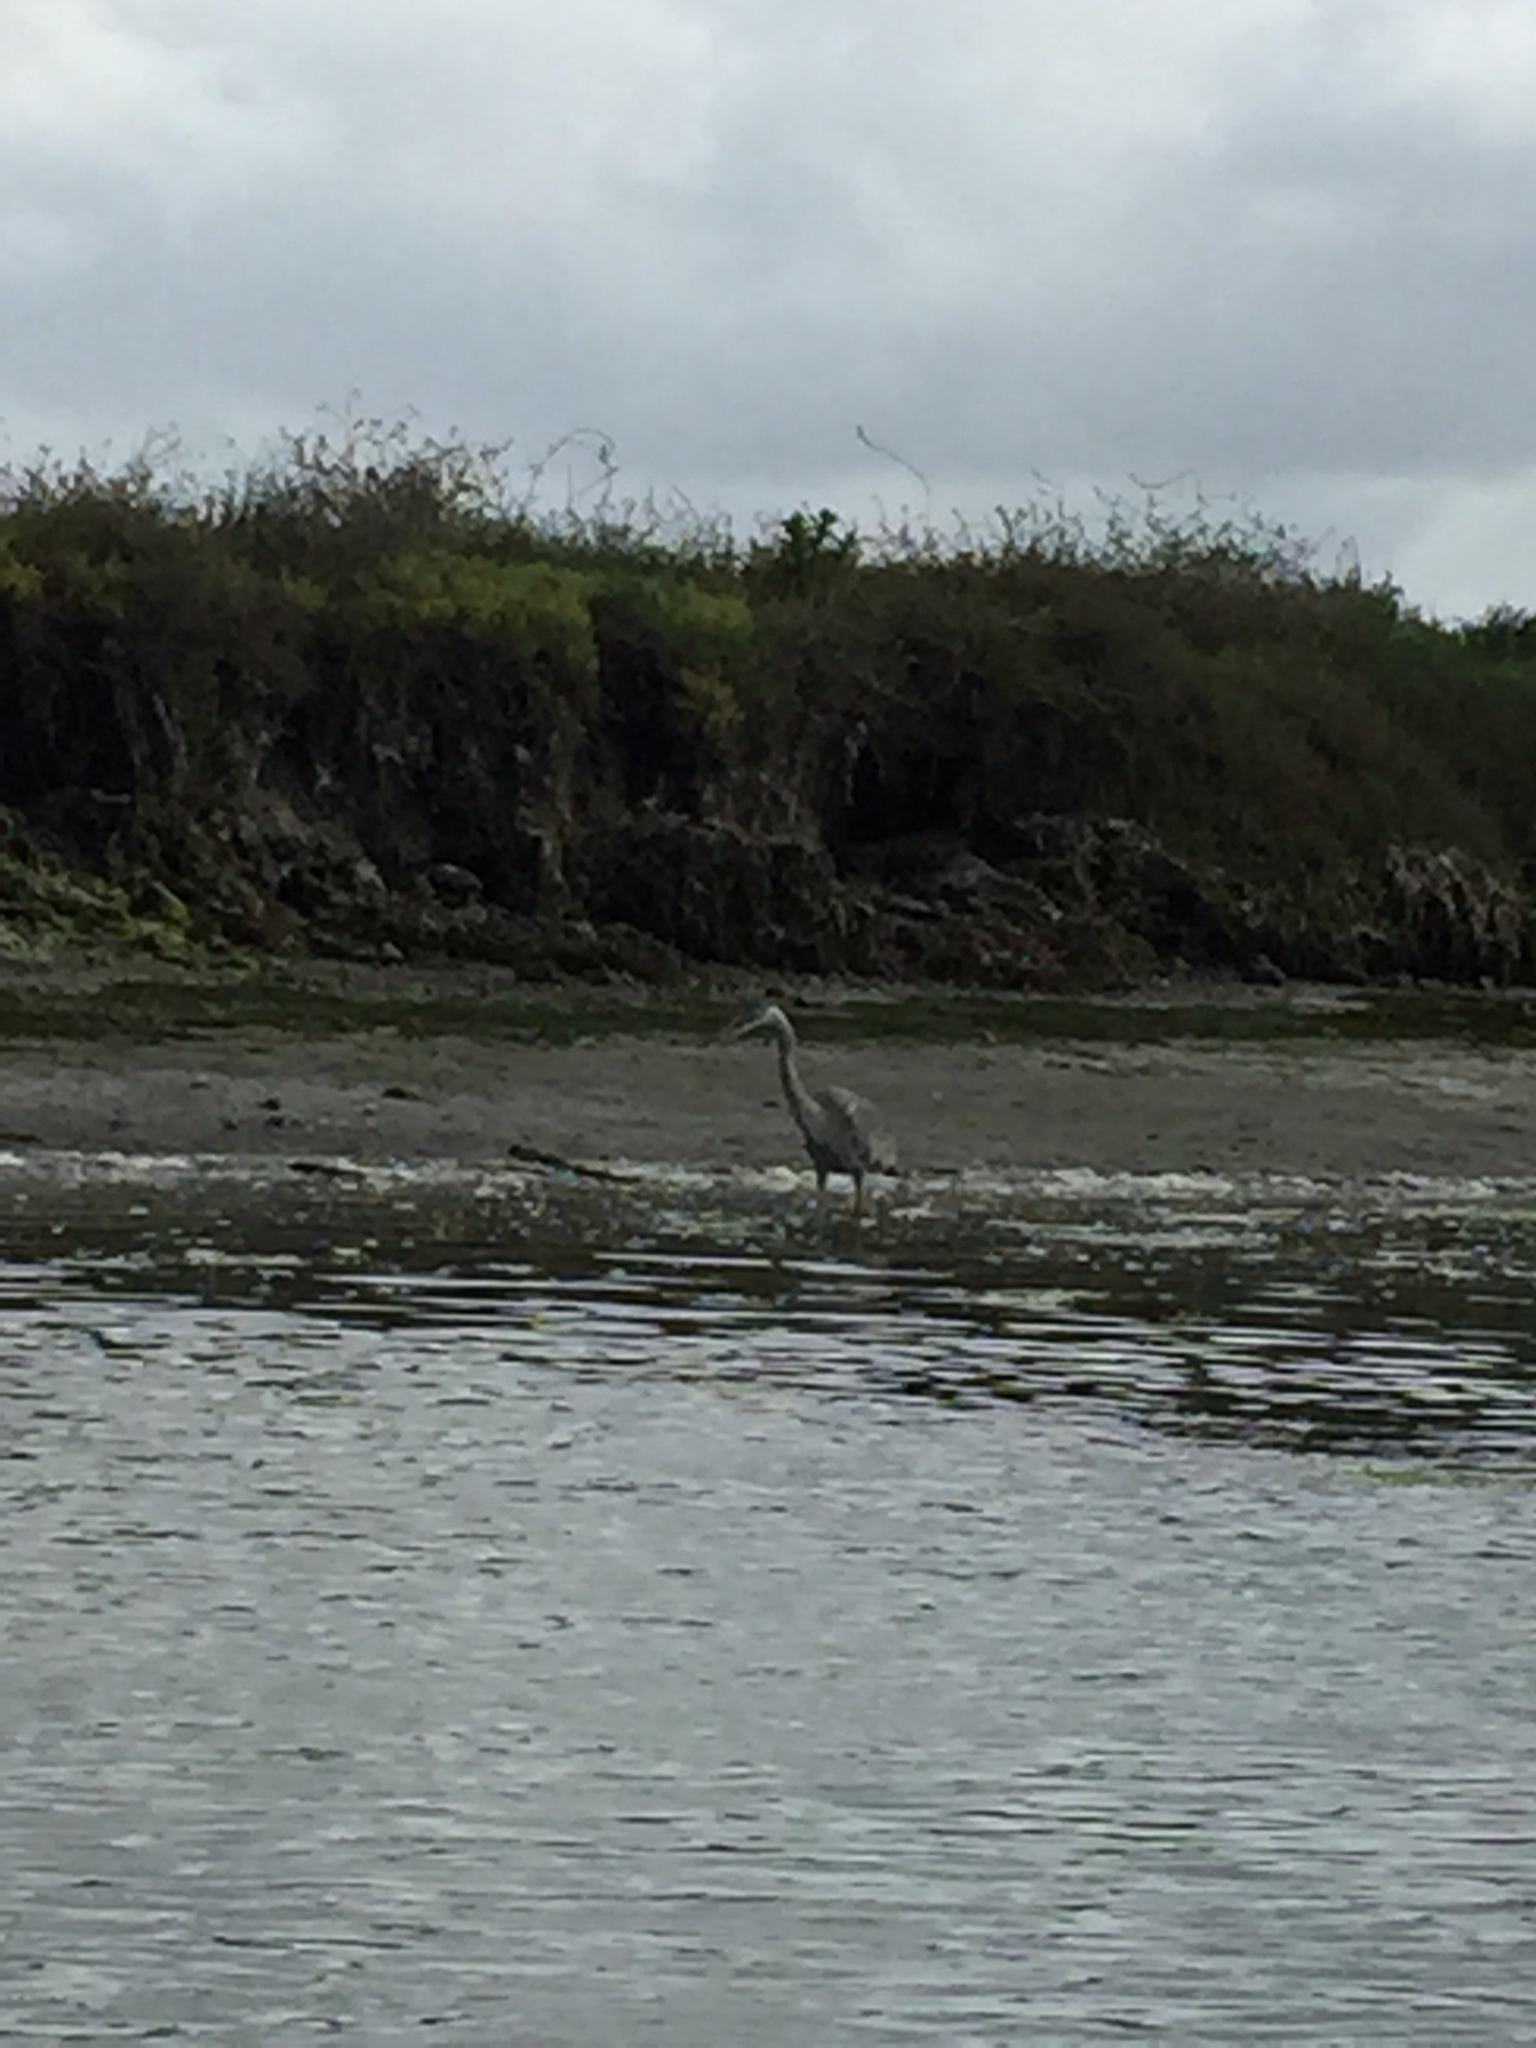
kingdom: Animalia
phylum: Chordata
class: Aves
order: Pelecaniformes
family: Ardeidae
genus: Ardea
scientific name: Ardea herodias
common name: Great blue heron
